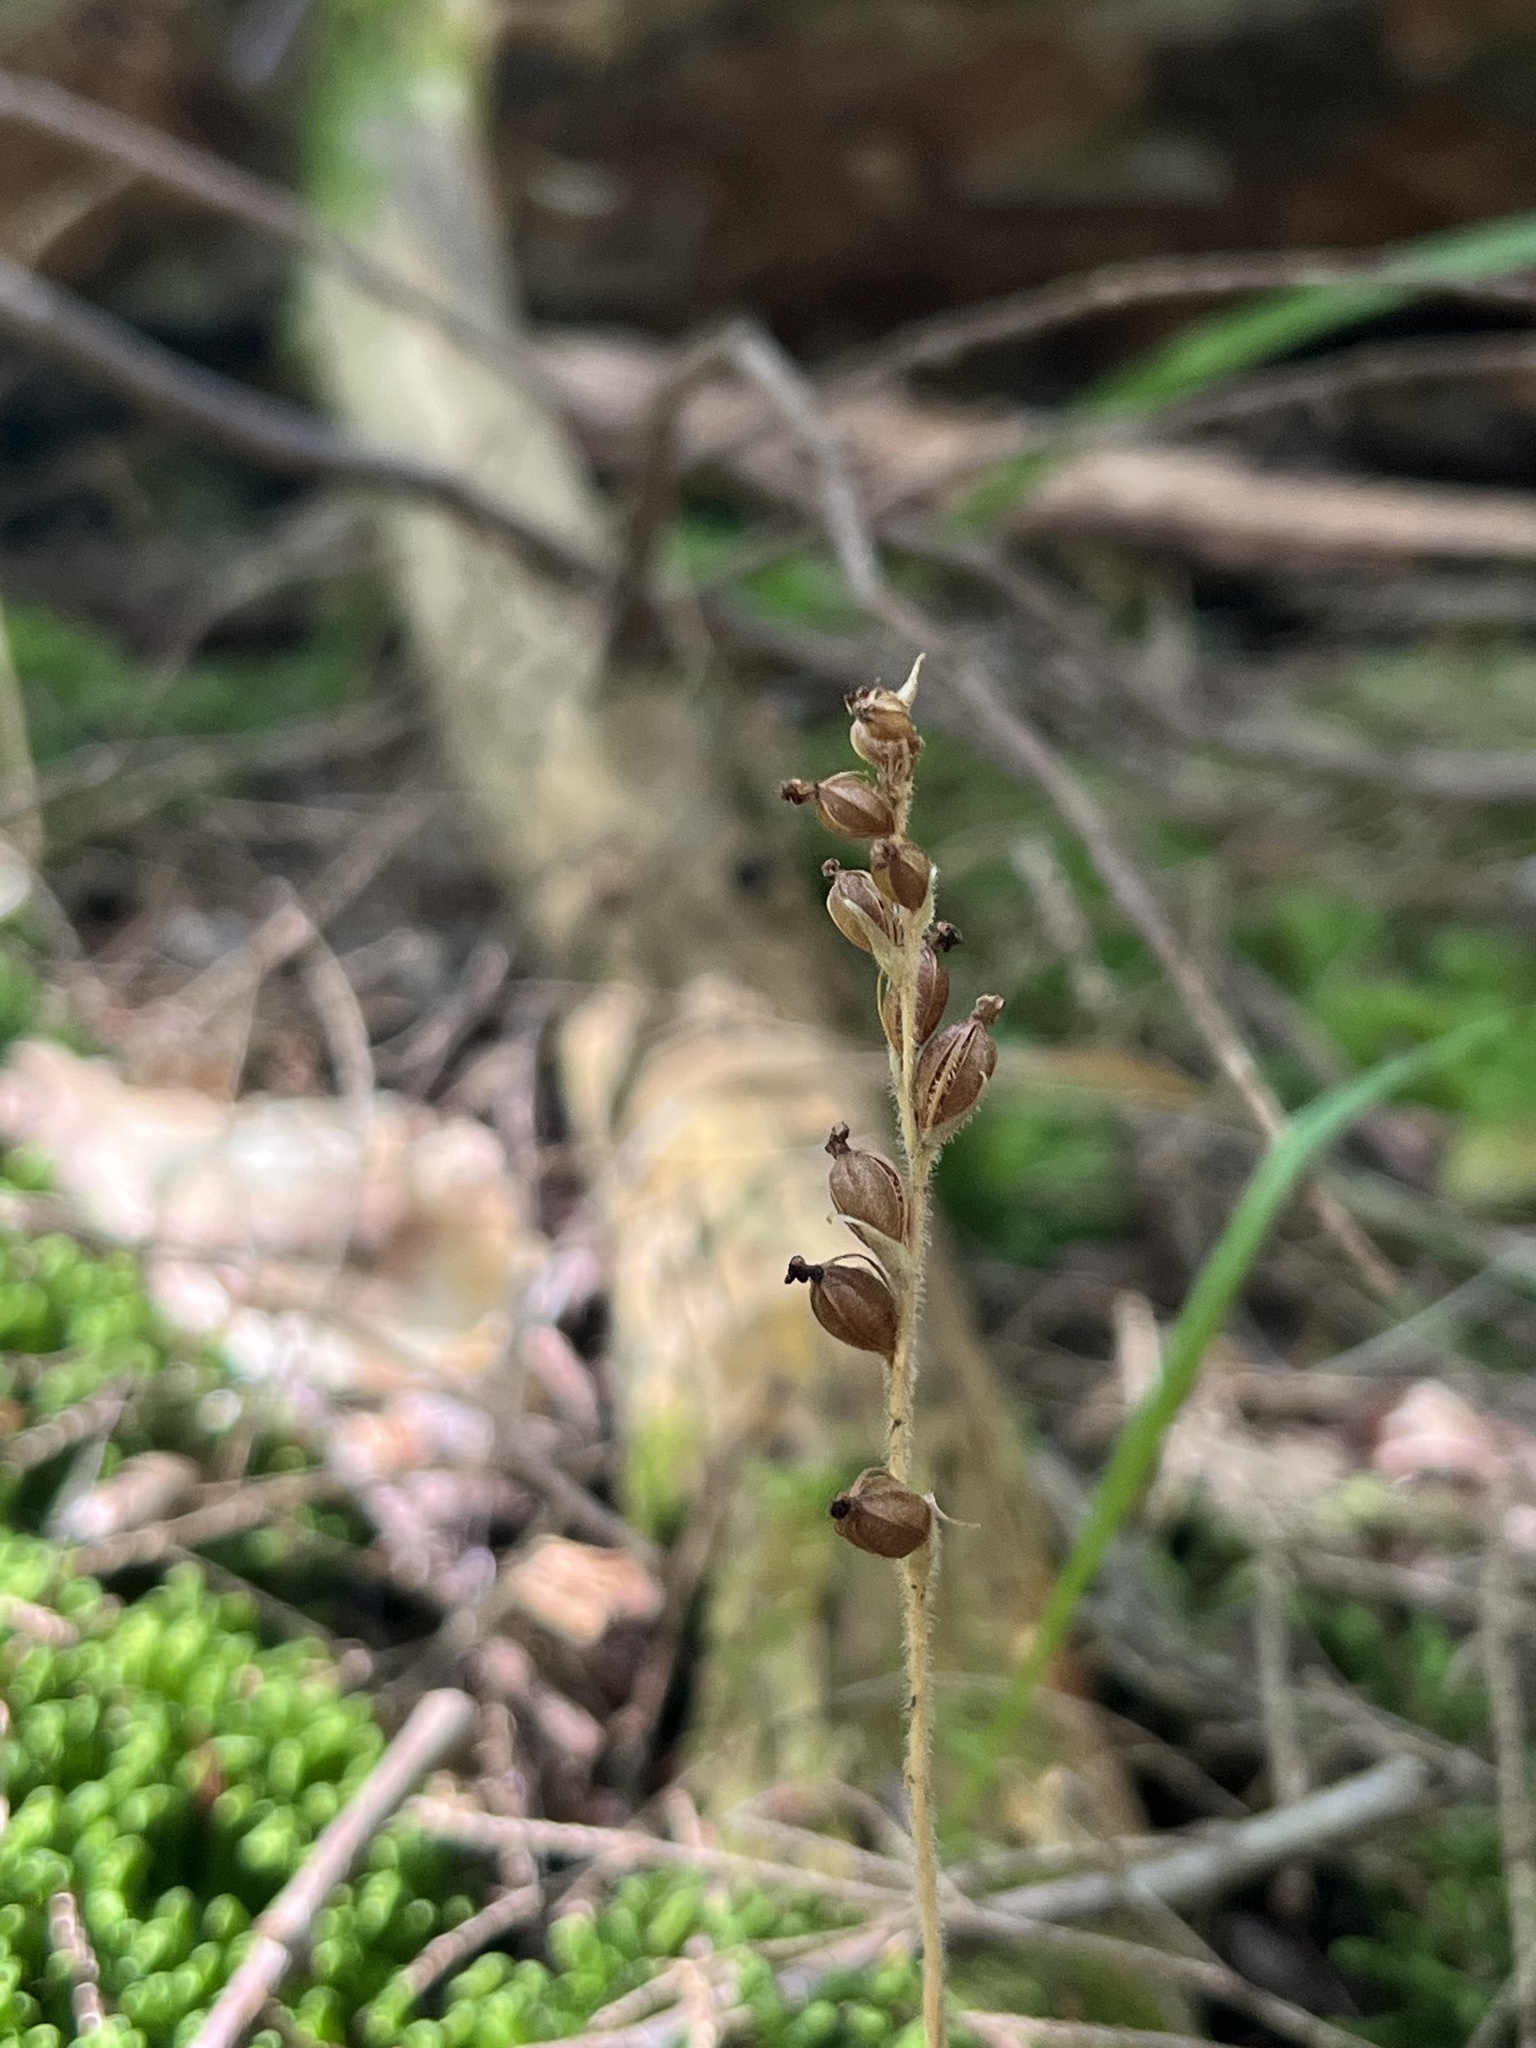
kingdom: Plantae
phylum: Tracheophyta
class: Liliopsida
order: Asparagales
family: Orchidaceae
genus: Goodyera
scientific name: Goodyera tesselata
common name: Checkered rattlesnake-plantain
